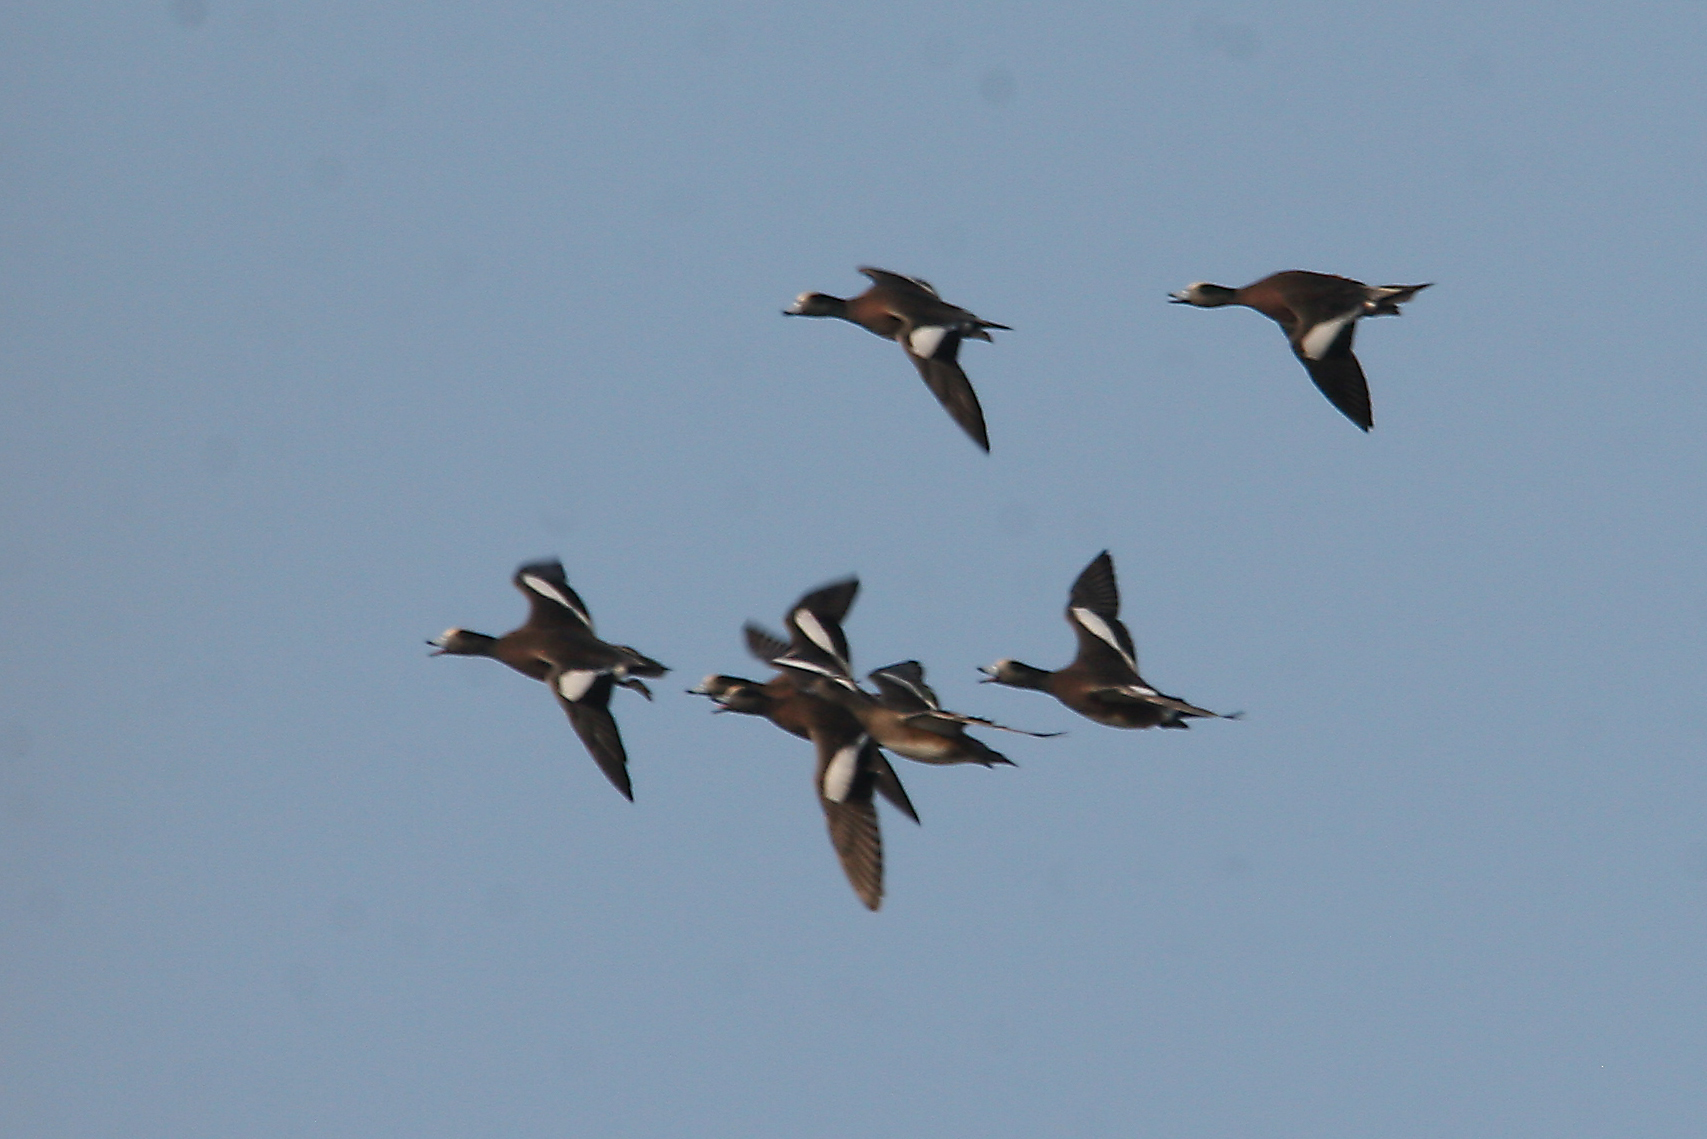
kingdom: Animalia
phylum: Chordata
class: Aves
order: Anseriformes
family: Anatidae
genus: Mareca
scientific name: Mareca americana
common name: American wigeon
